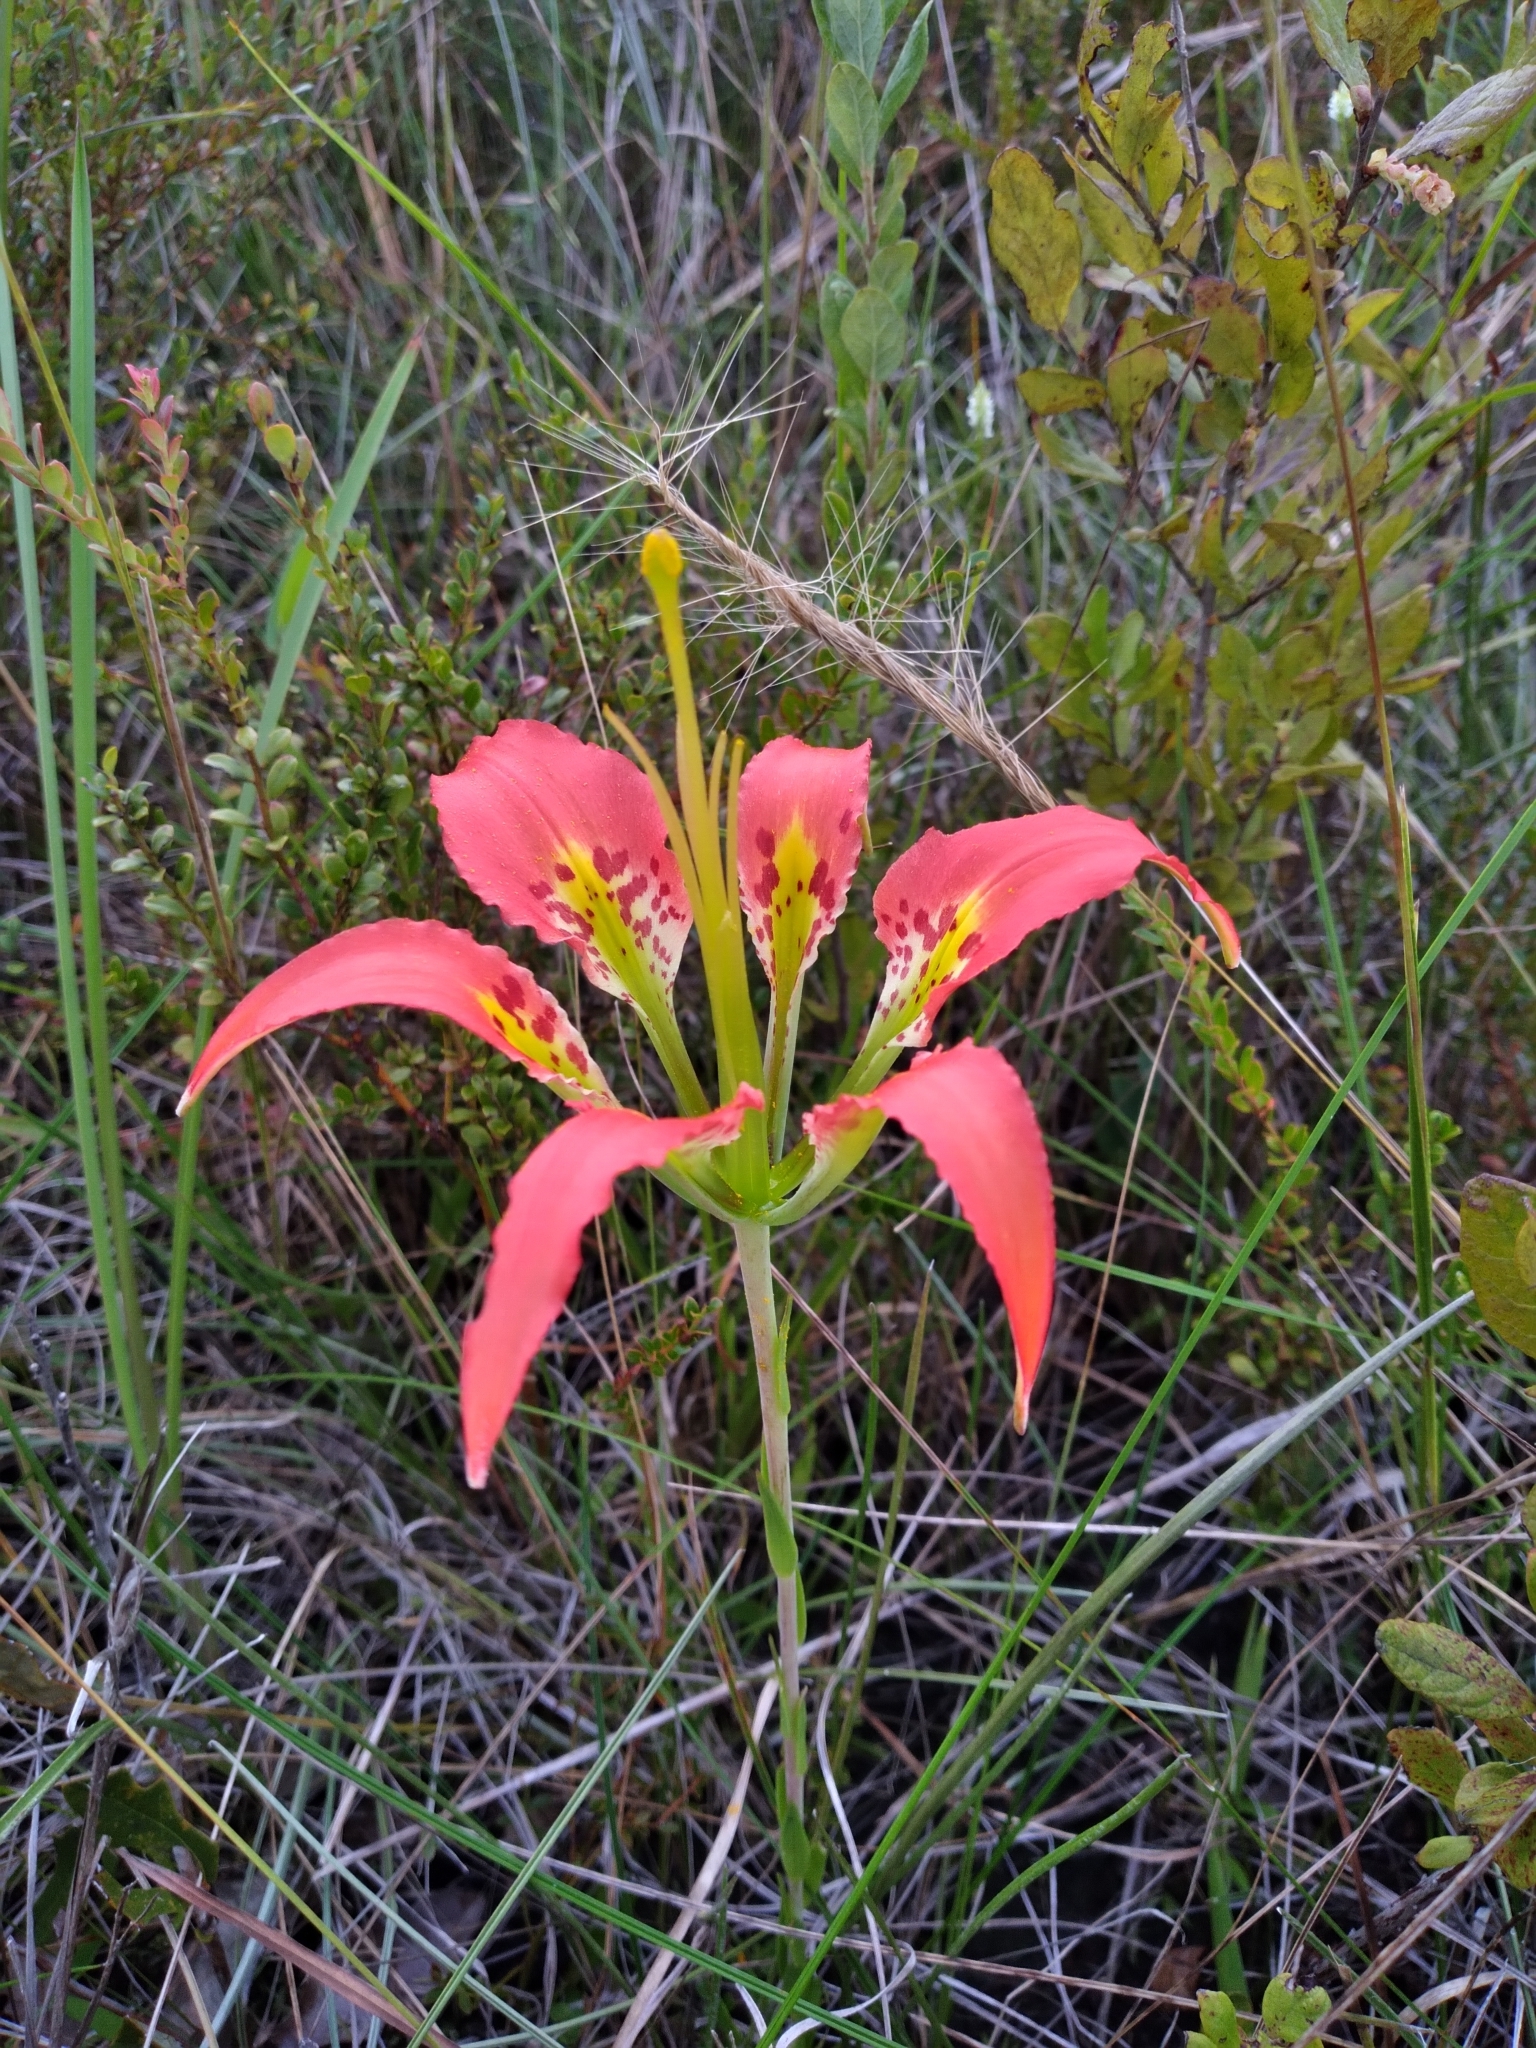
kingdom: Plantae
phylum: Tracheophyta
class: Liliopsida
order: Liliales
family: Liliaceae
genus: Lilium
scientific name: Lilium catesbaei
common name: Catesby's lily
